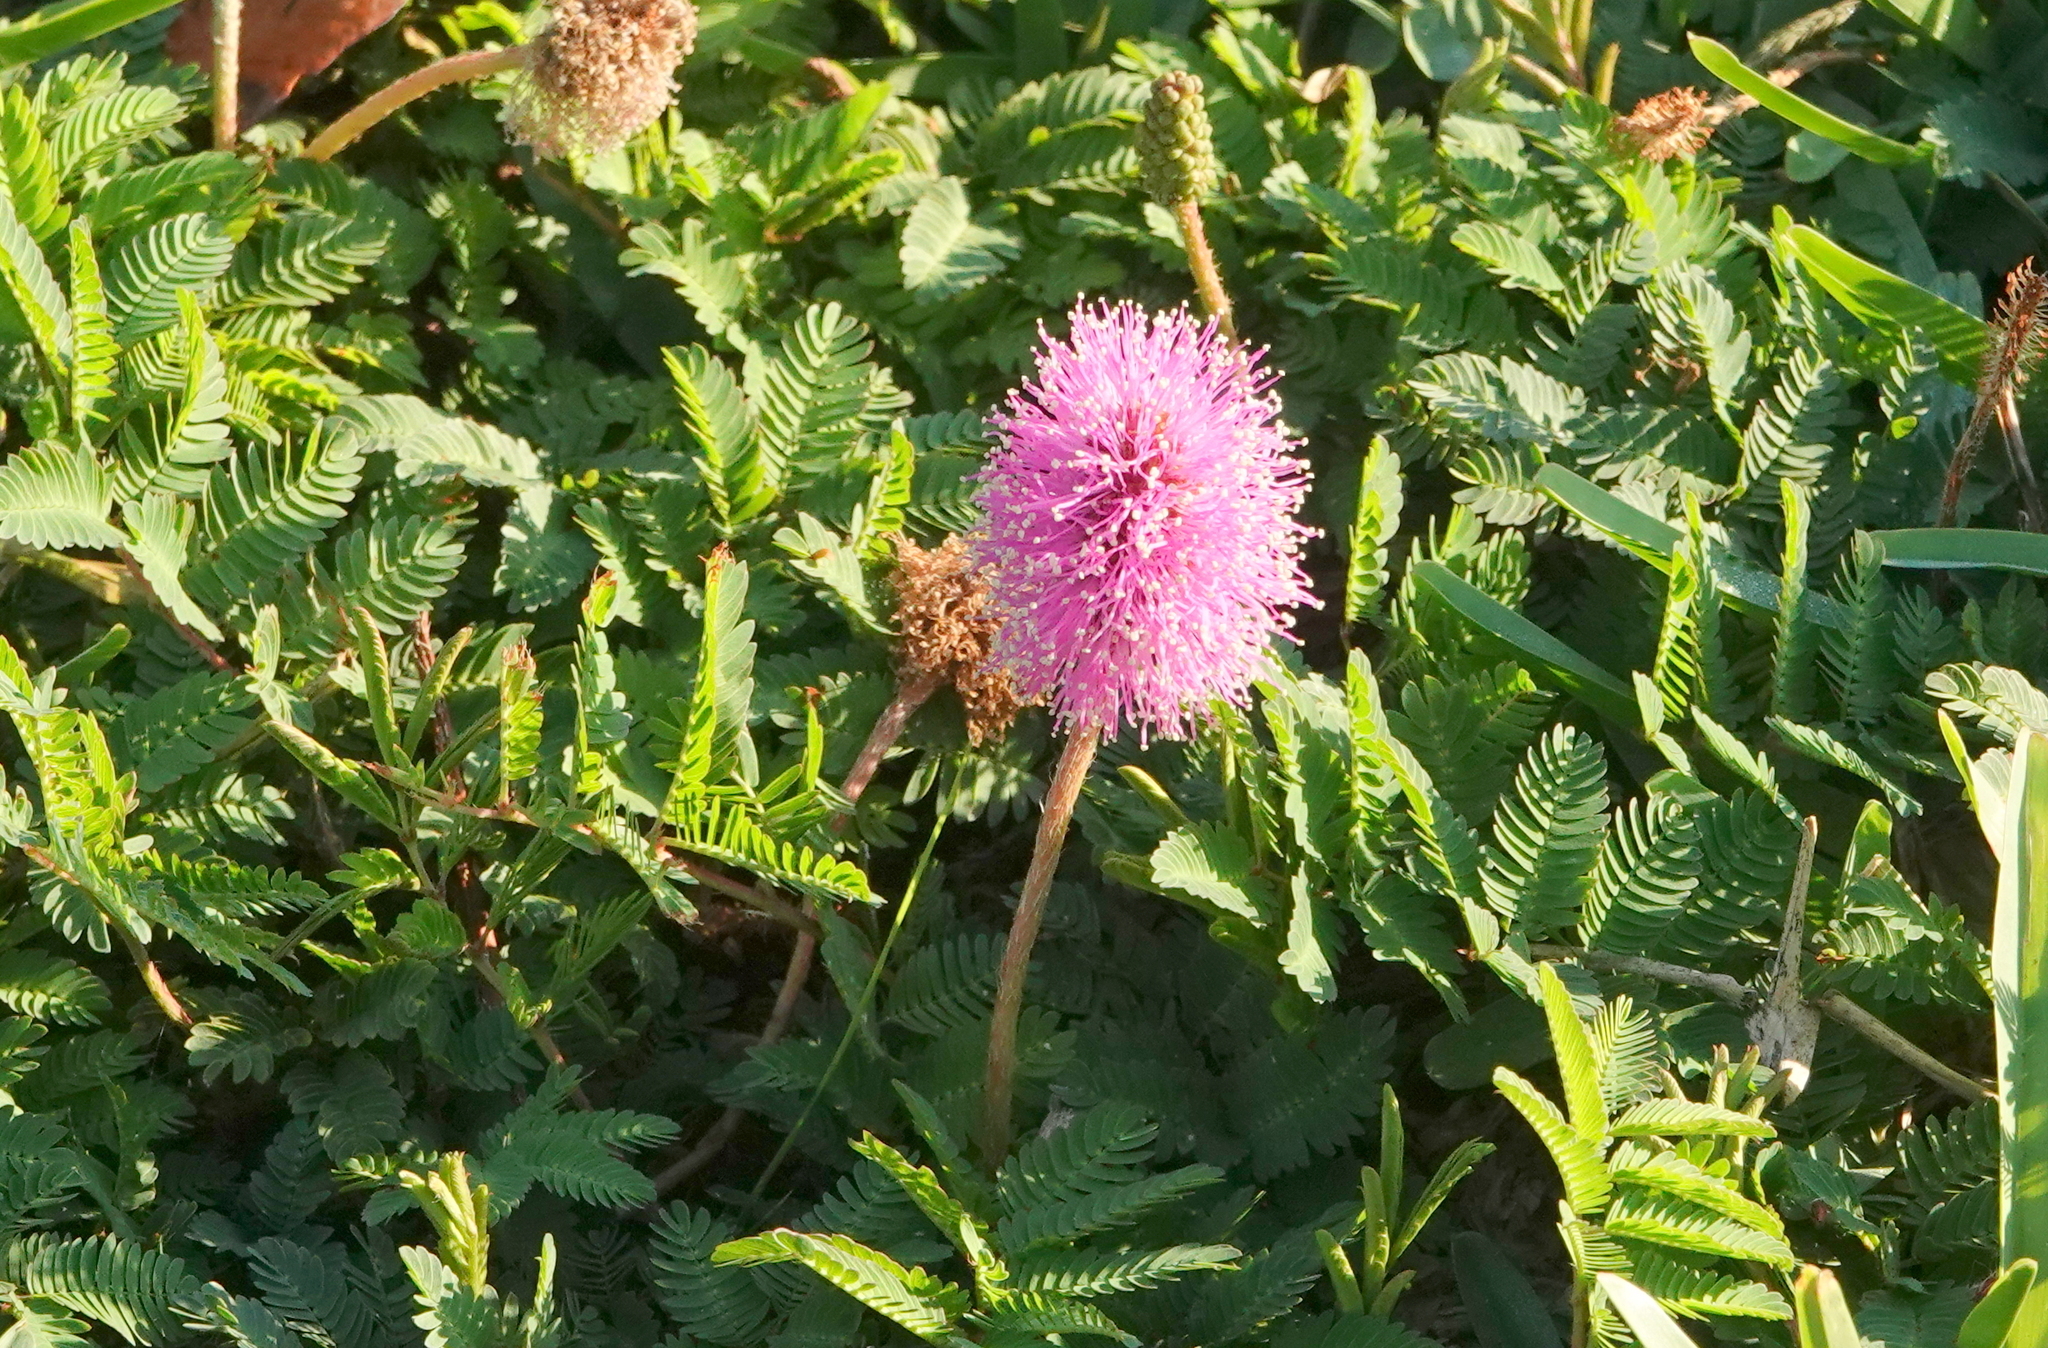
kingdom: Plantae
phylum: Tracheophyta
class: Magnoliopsida
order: Fabales
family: Fabaceae
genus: Mimosa
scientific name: Mimosa strigillosa
